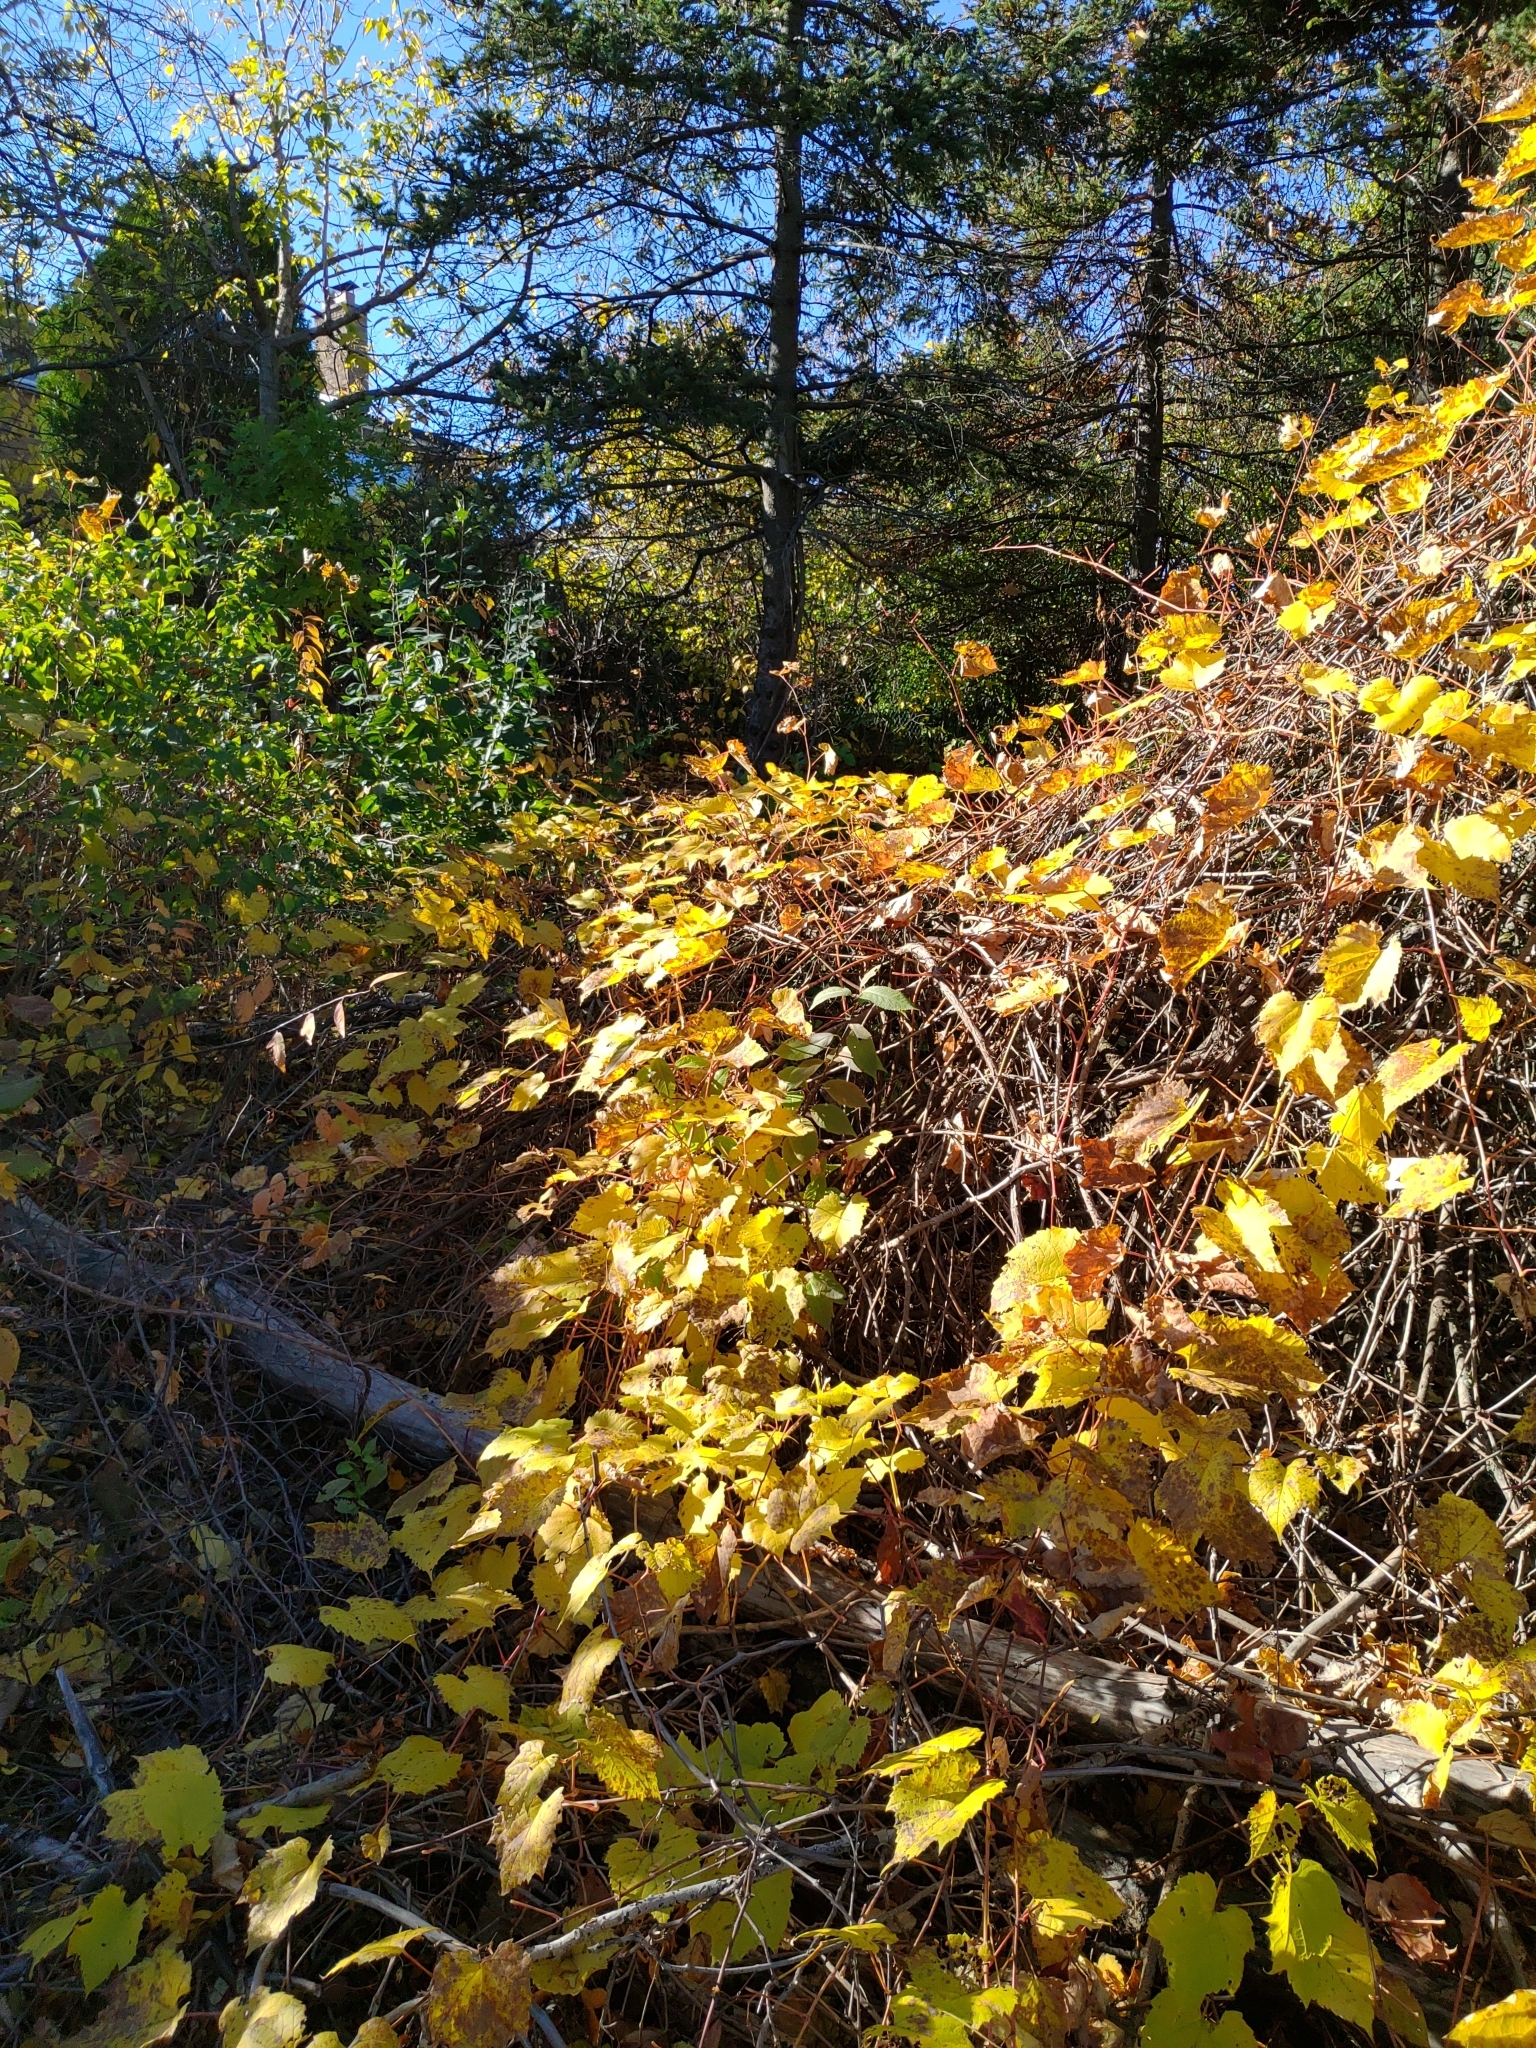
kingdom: Plantae
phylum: Tracheophyta
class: Magnoliopsida
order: Vitales
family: Vitaceae
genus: Vitis
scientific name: Vitis riparia
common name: Frost grape
